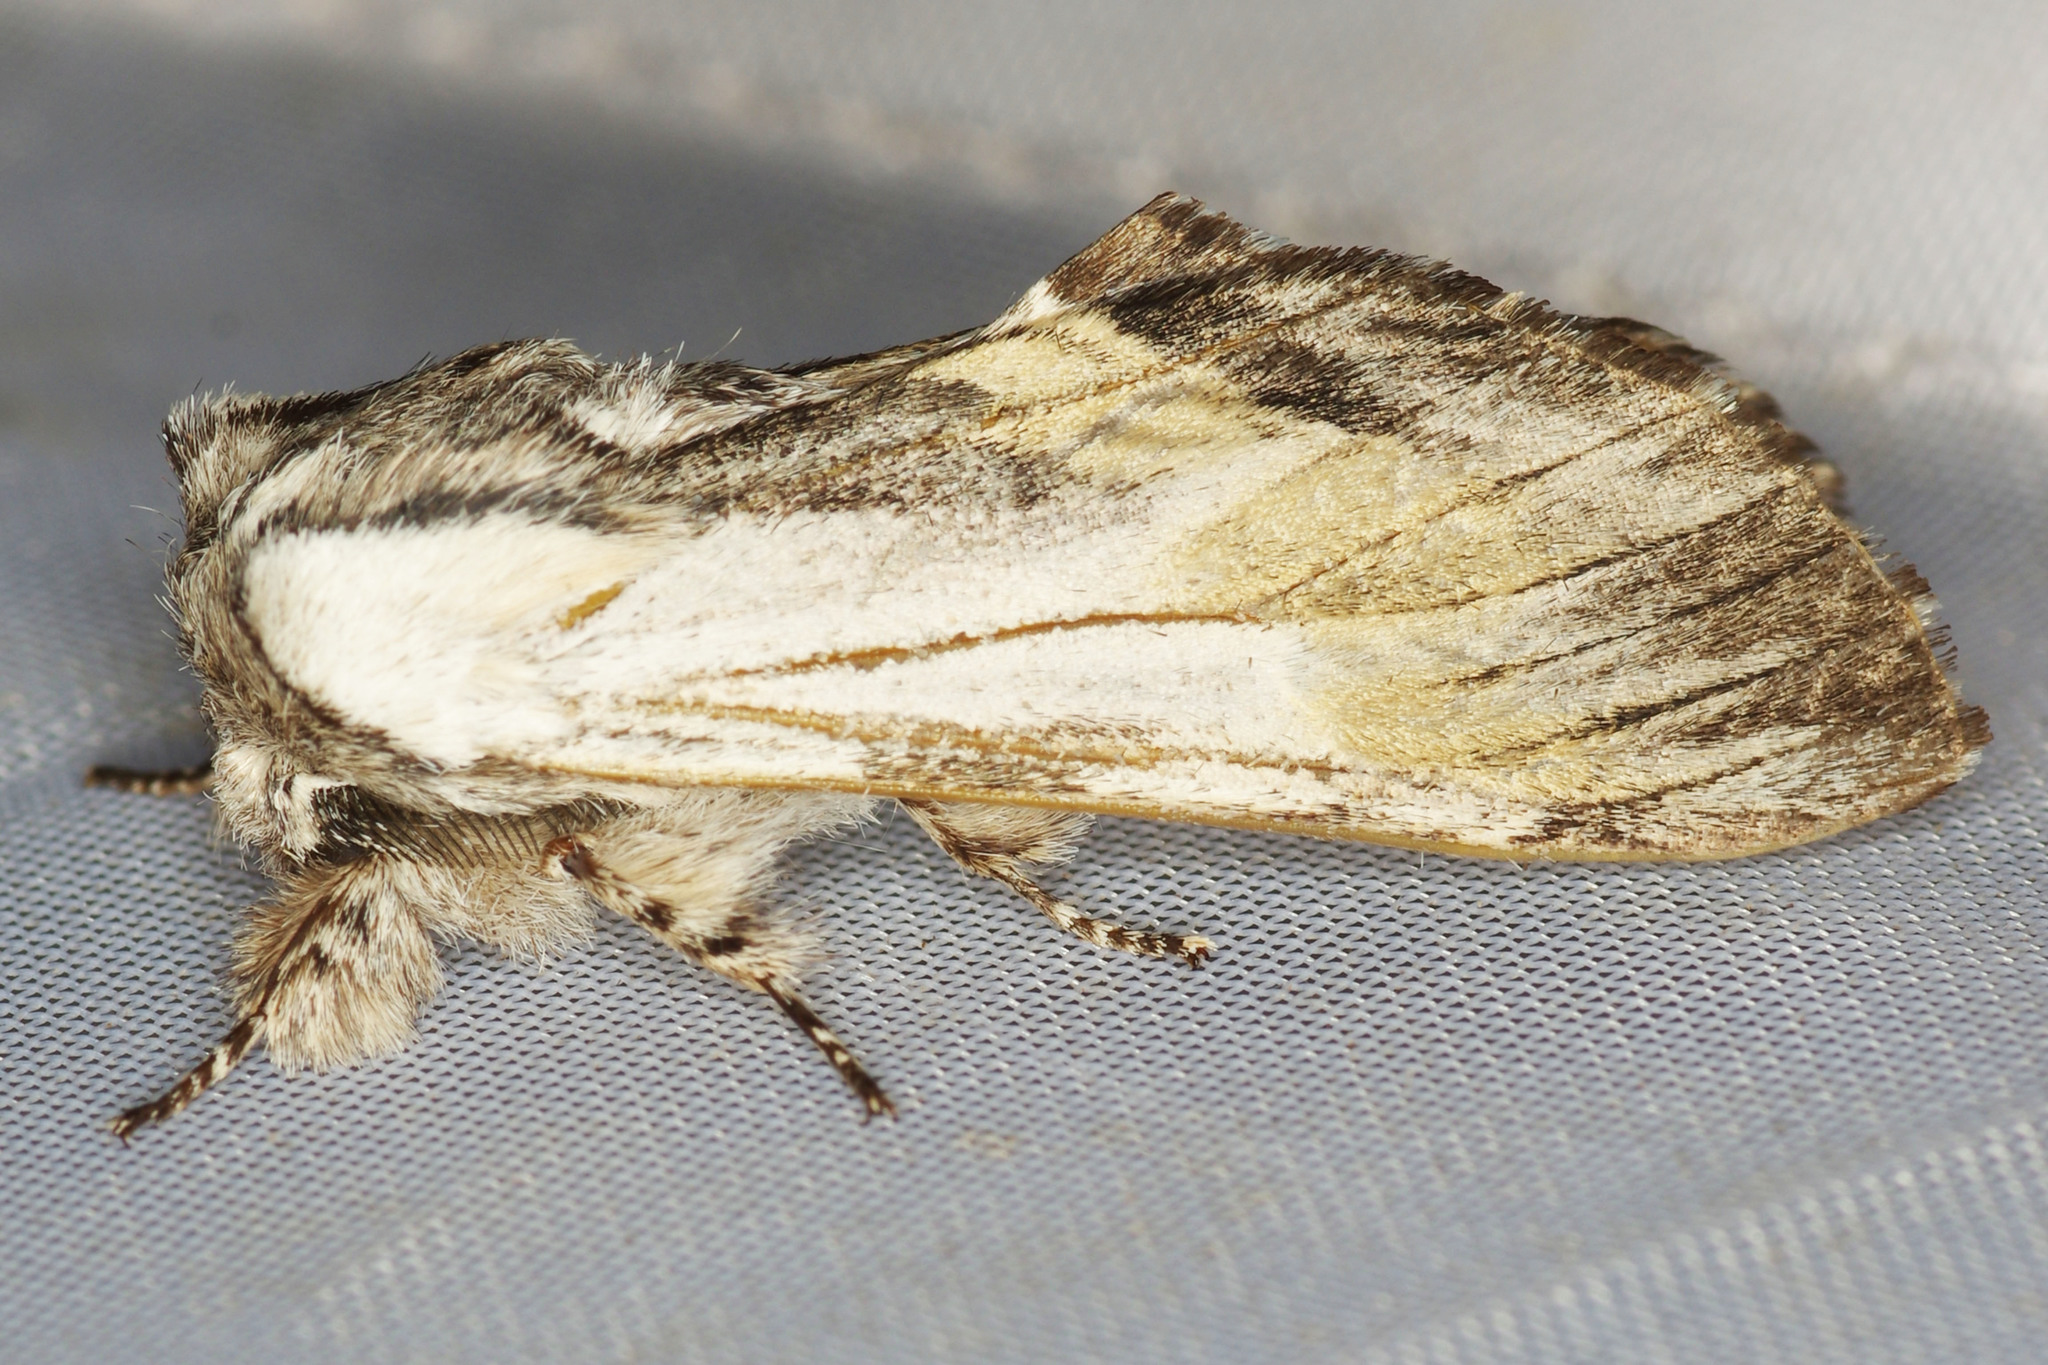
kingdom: Animalia
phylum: Arthropoda
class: Insecta
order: Lepidoptera
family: Notodontidae
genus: Harpyia
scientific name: Harpyia milhauseri
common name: Tawny prominent
